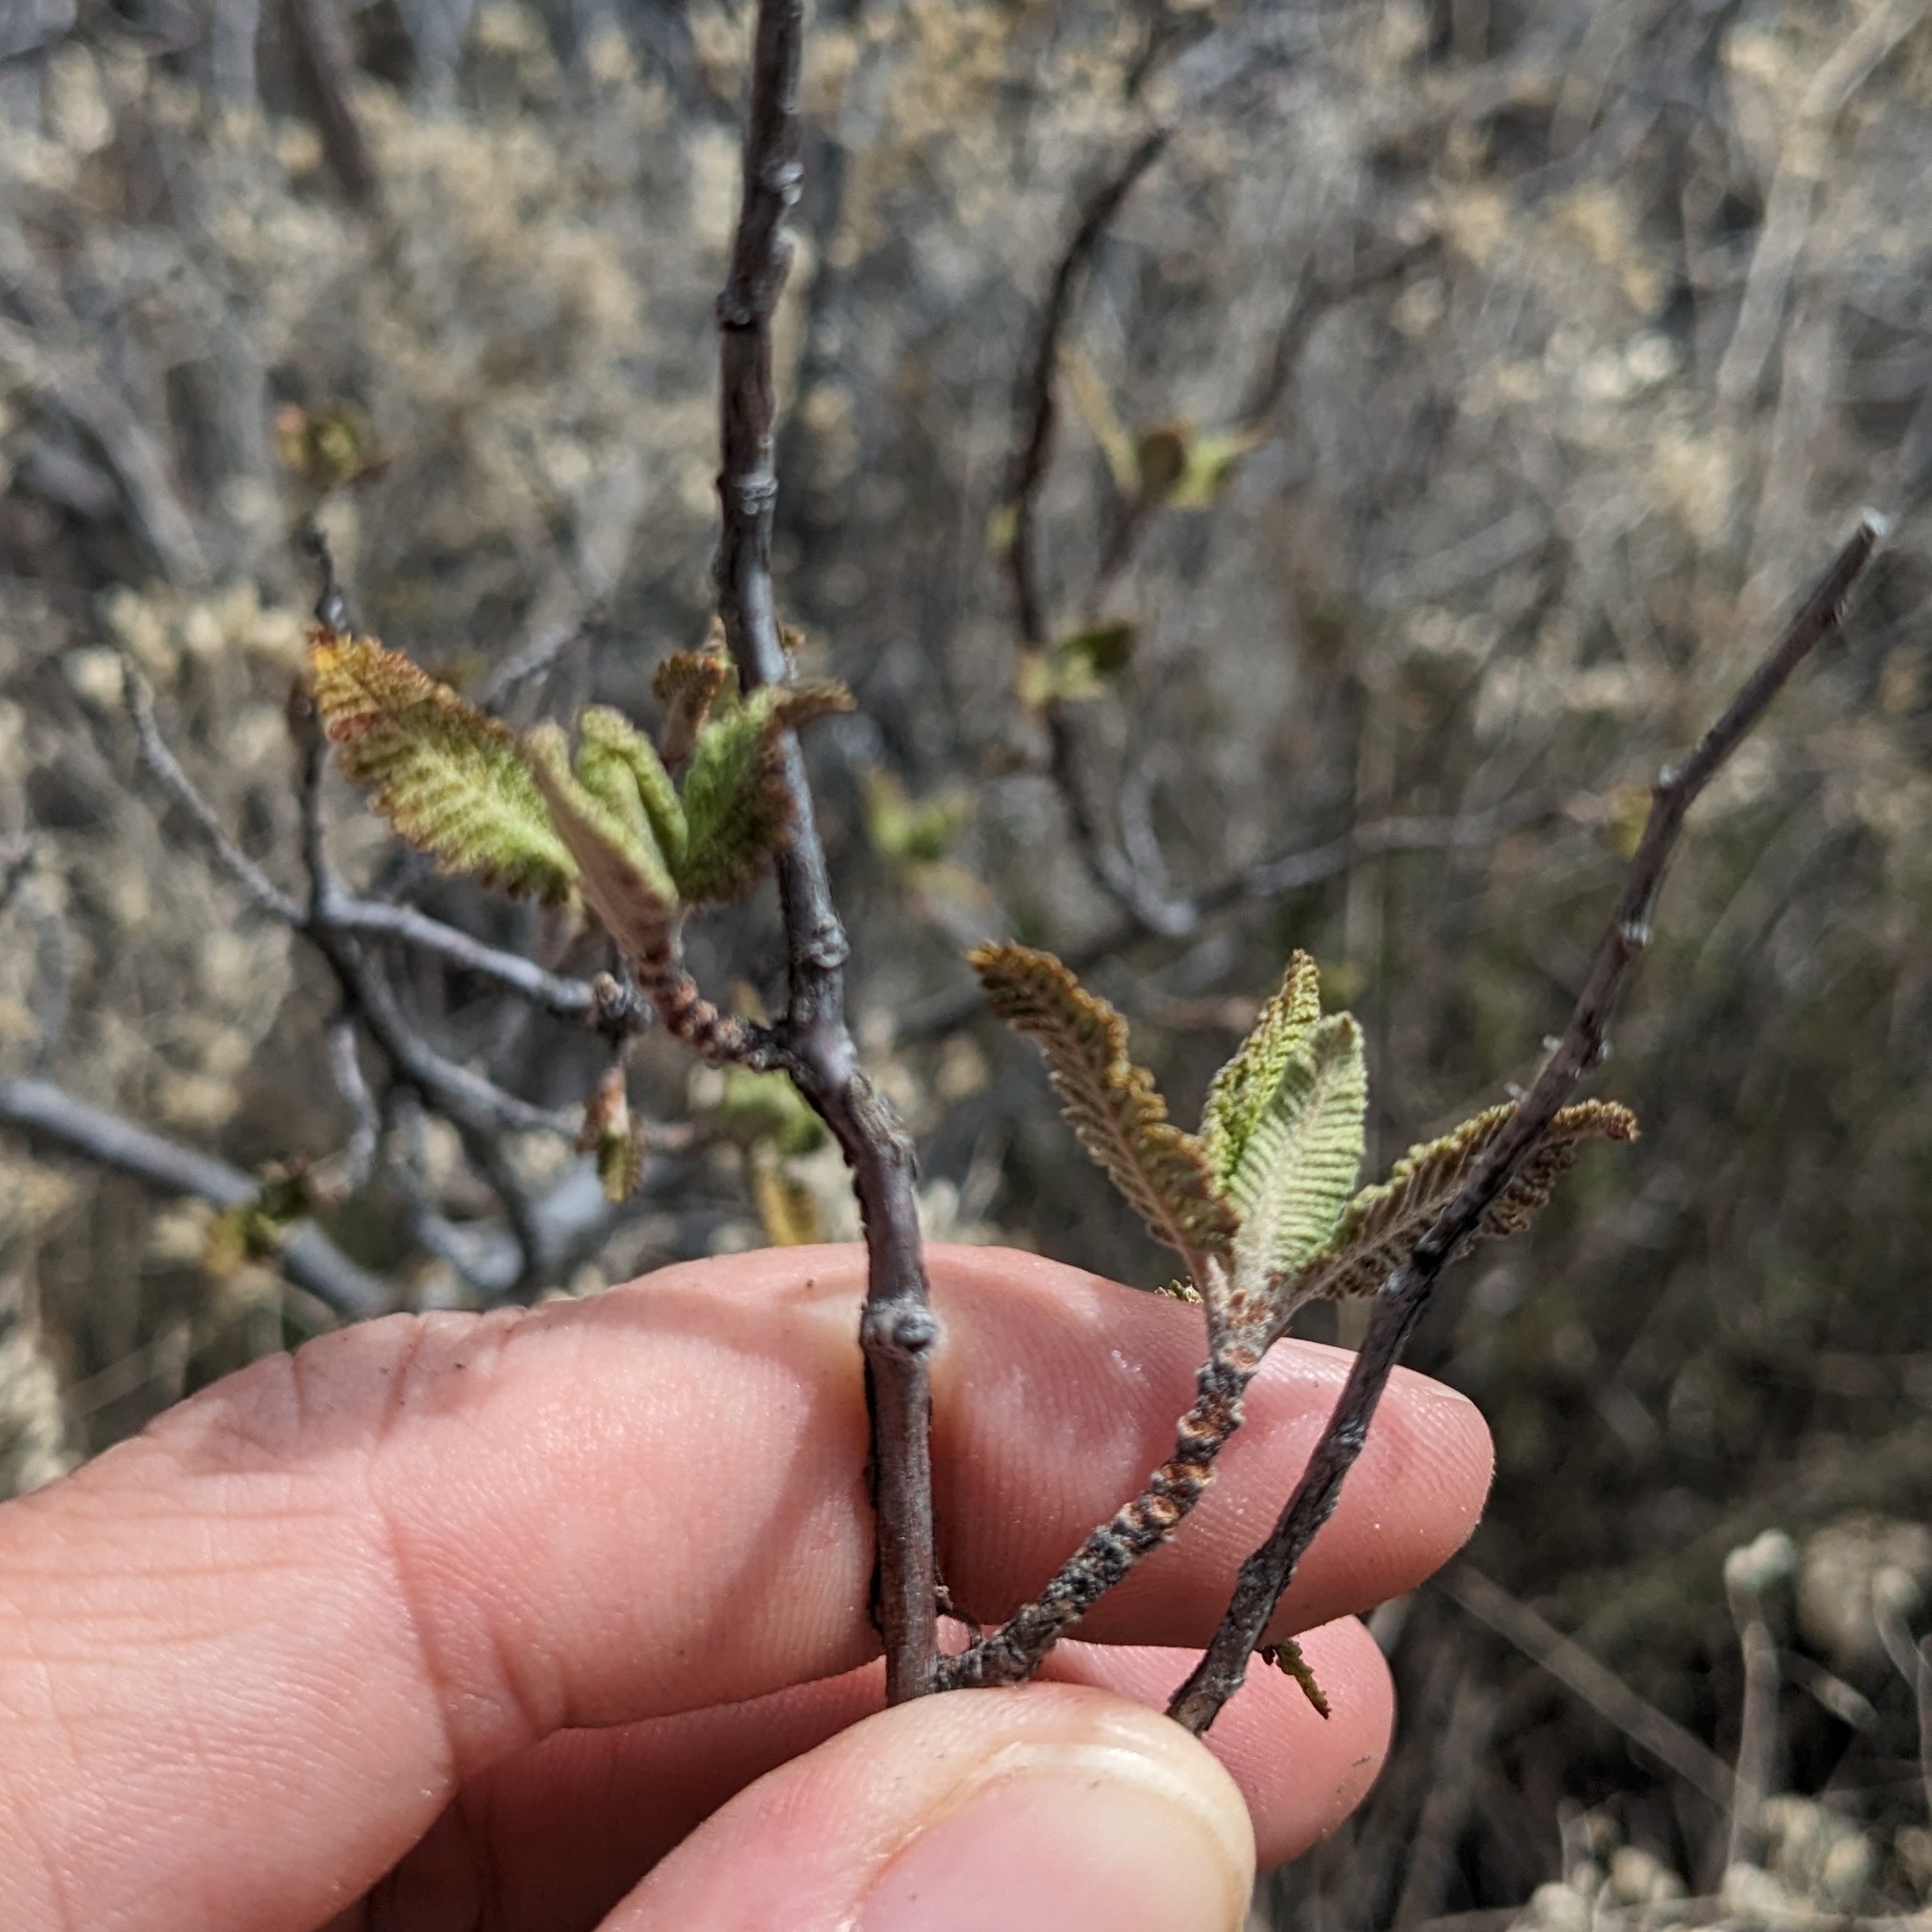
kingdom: Plantae
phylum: Tracheophyta
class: Magnoliopsida
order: Rosales
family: Rosaceae
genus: Chamaebatiaria
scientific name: Chamaebatiaria millefolium
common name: Fernbush
